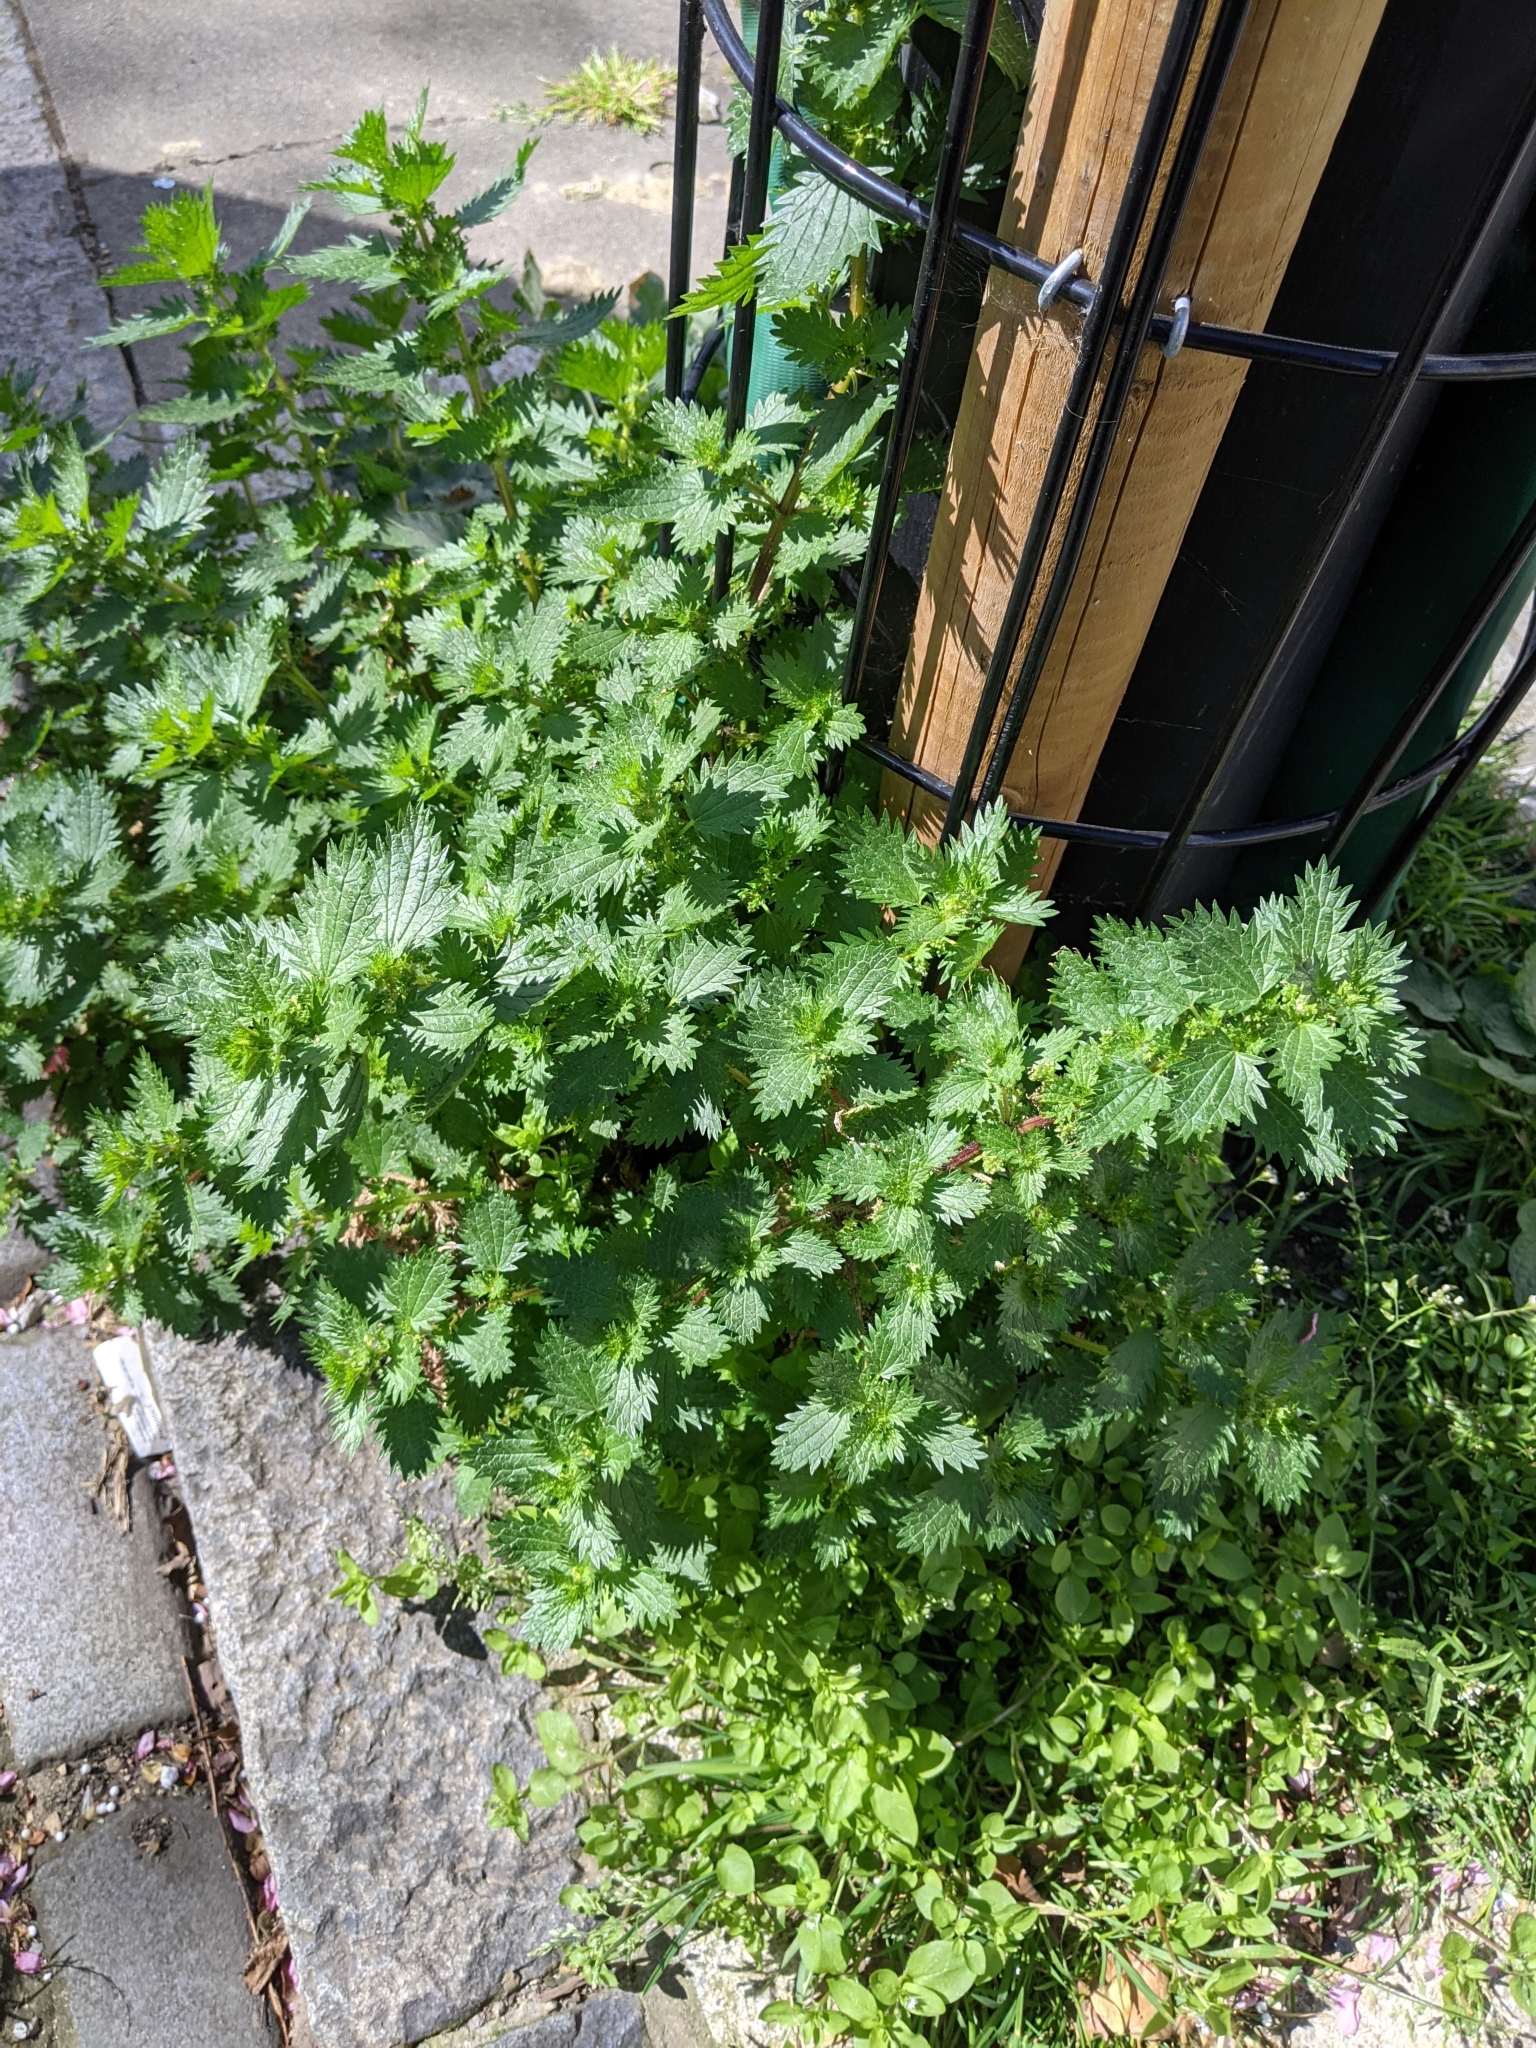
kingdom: Plantae
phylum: Tracheophyta
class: Magnoliopsida
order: Rosales
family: Urticaceae
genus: Urtica
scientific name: Urtica urens
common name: Dwarf nettle
